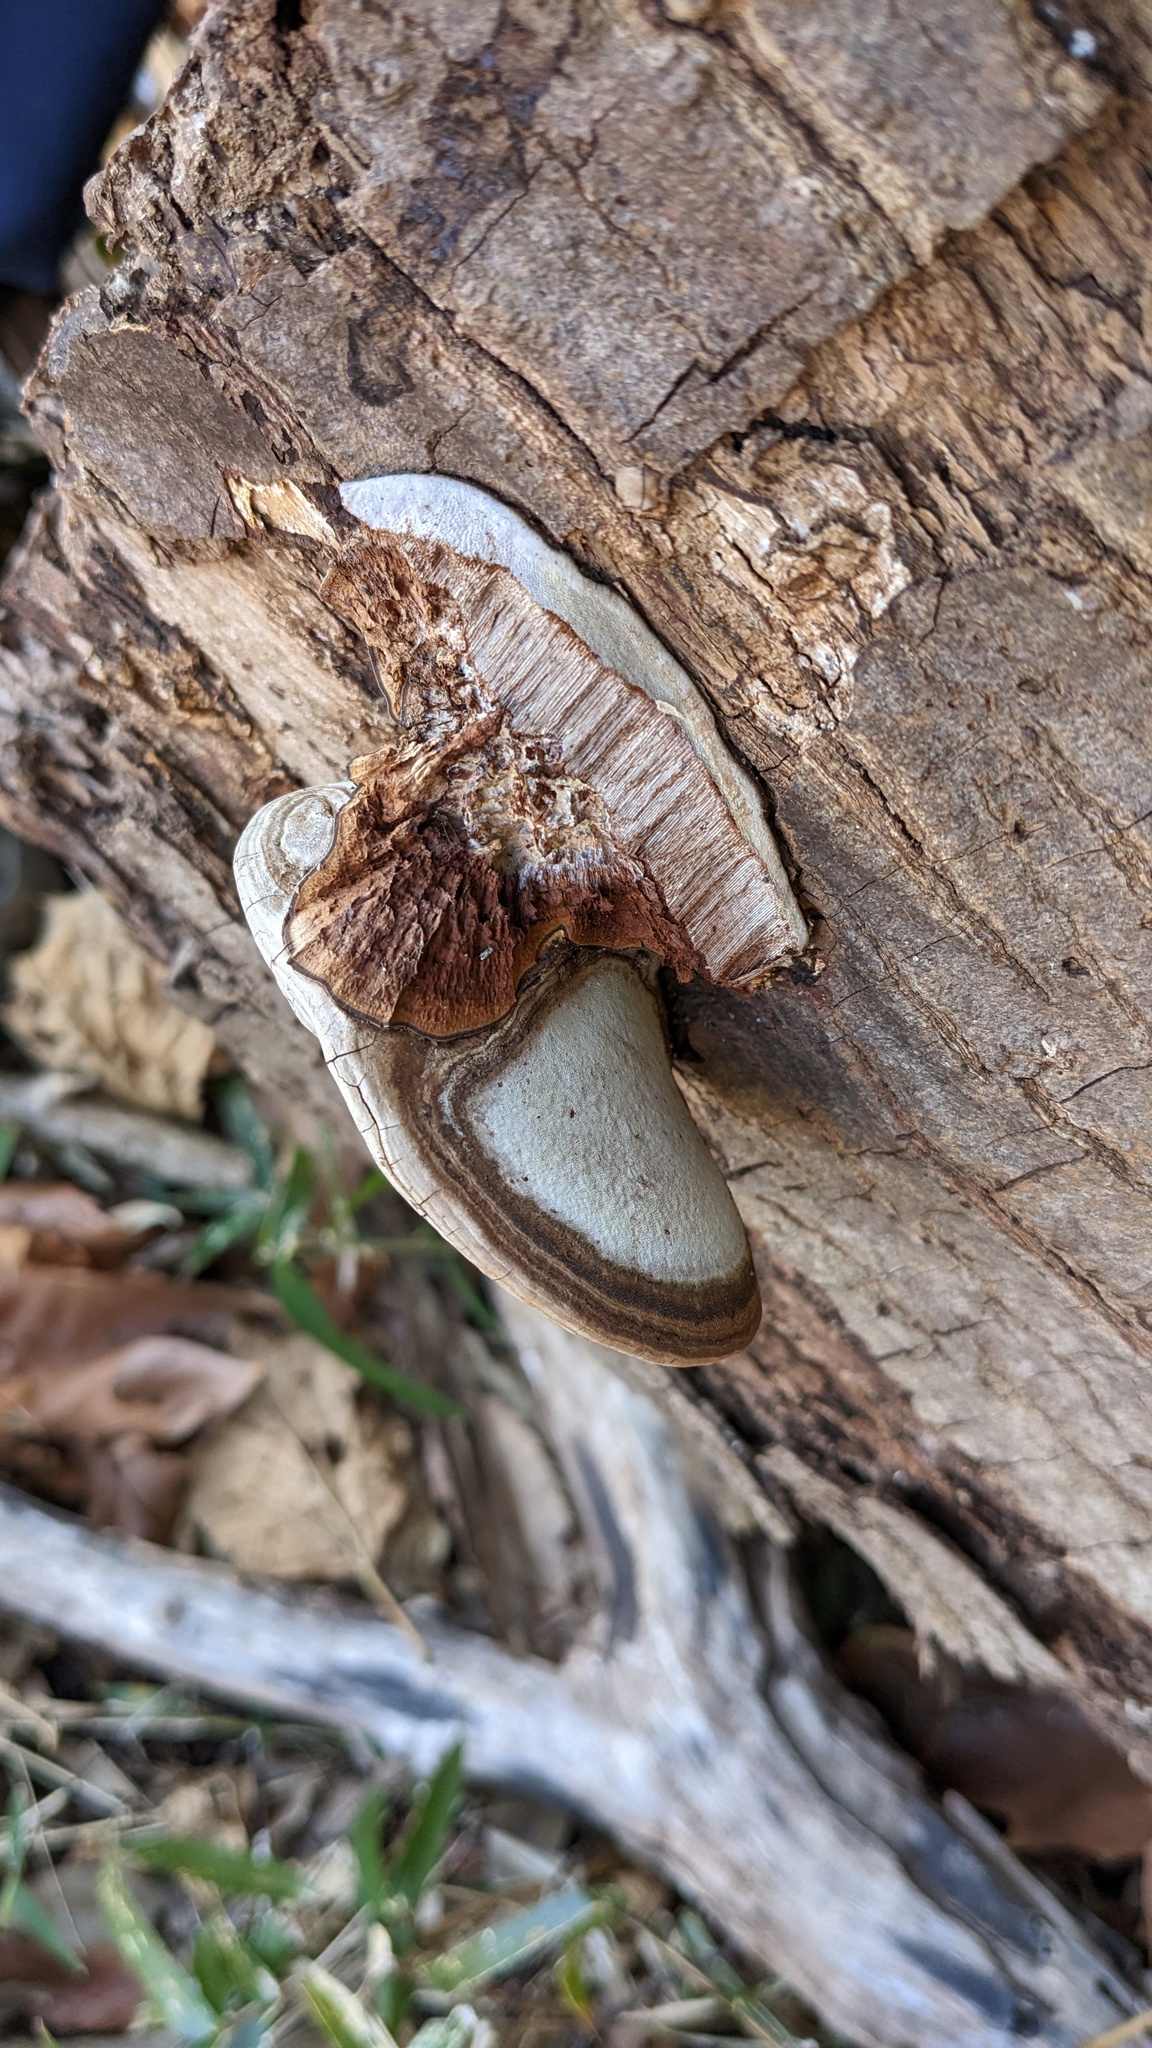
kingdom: Fungi
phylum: Basidiomycota
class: Agaricomycetes
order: Polyporales
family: Polyporaceae
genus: Ganoderma
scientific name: Ganoderma applanatum
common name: Artist's bracket
